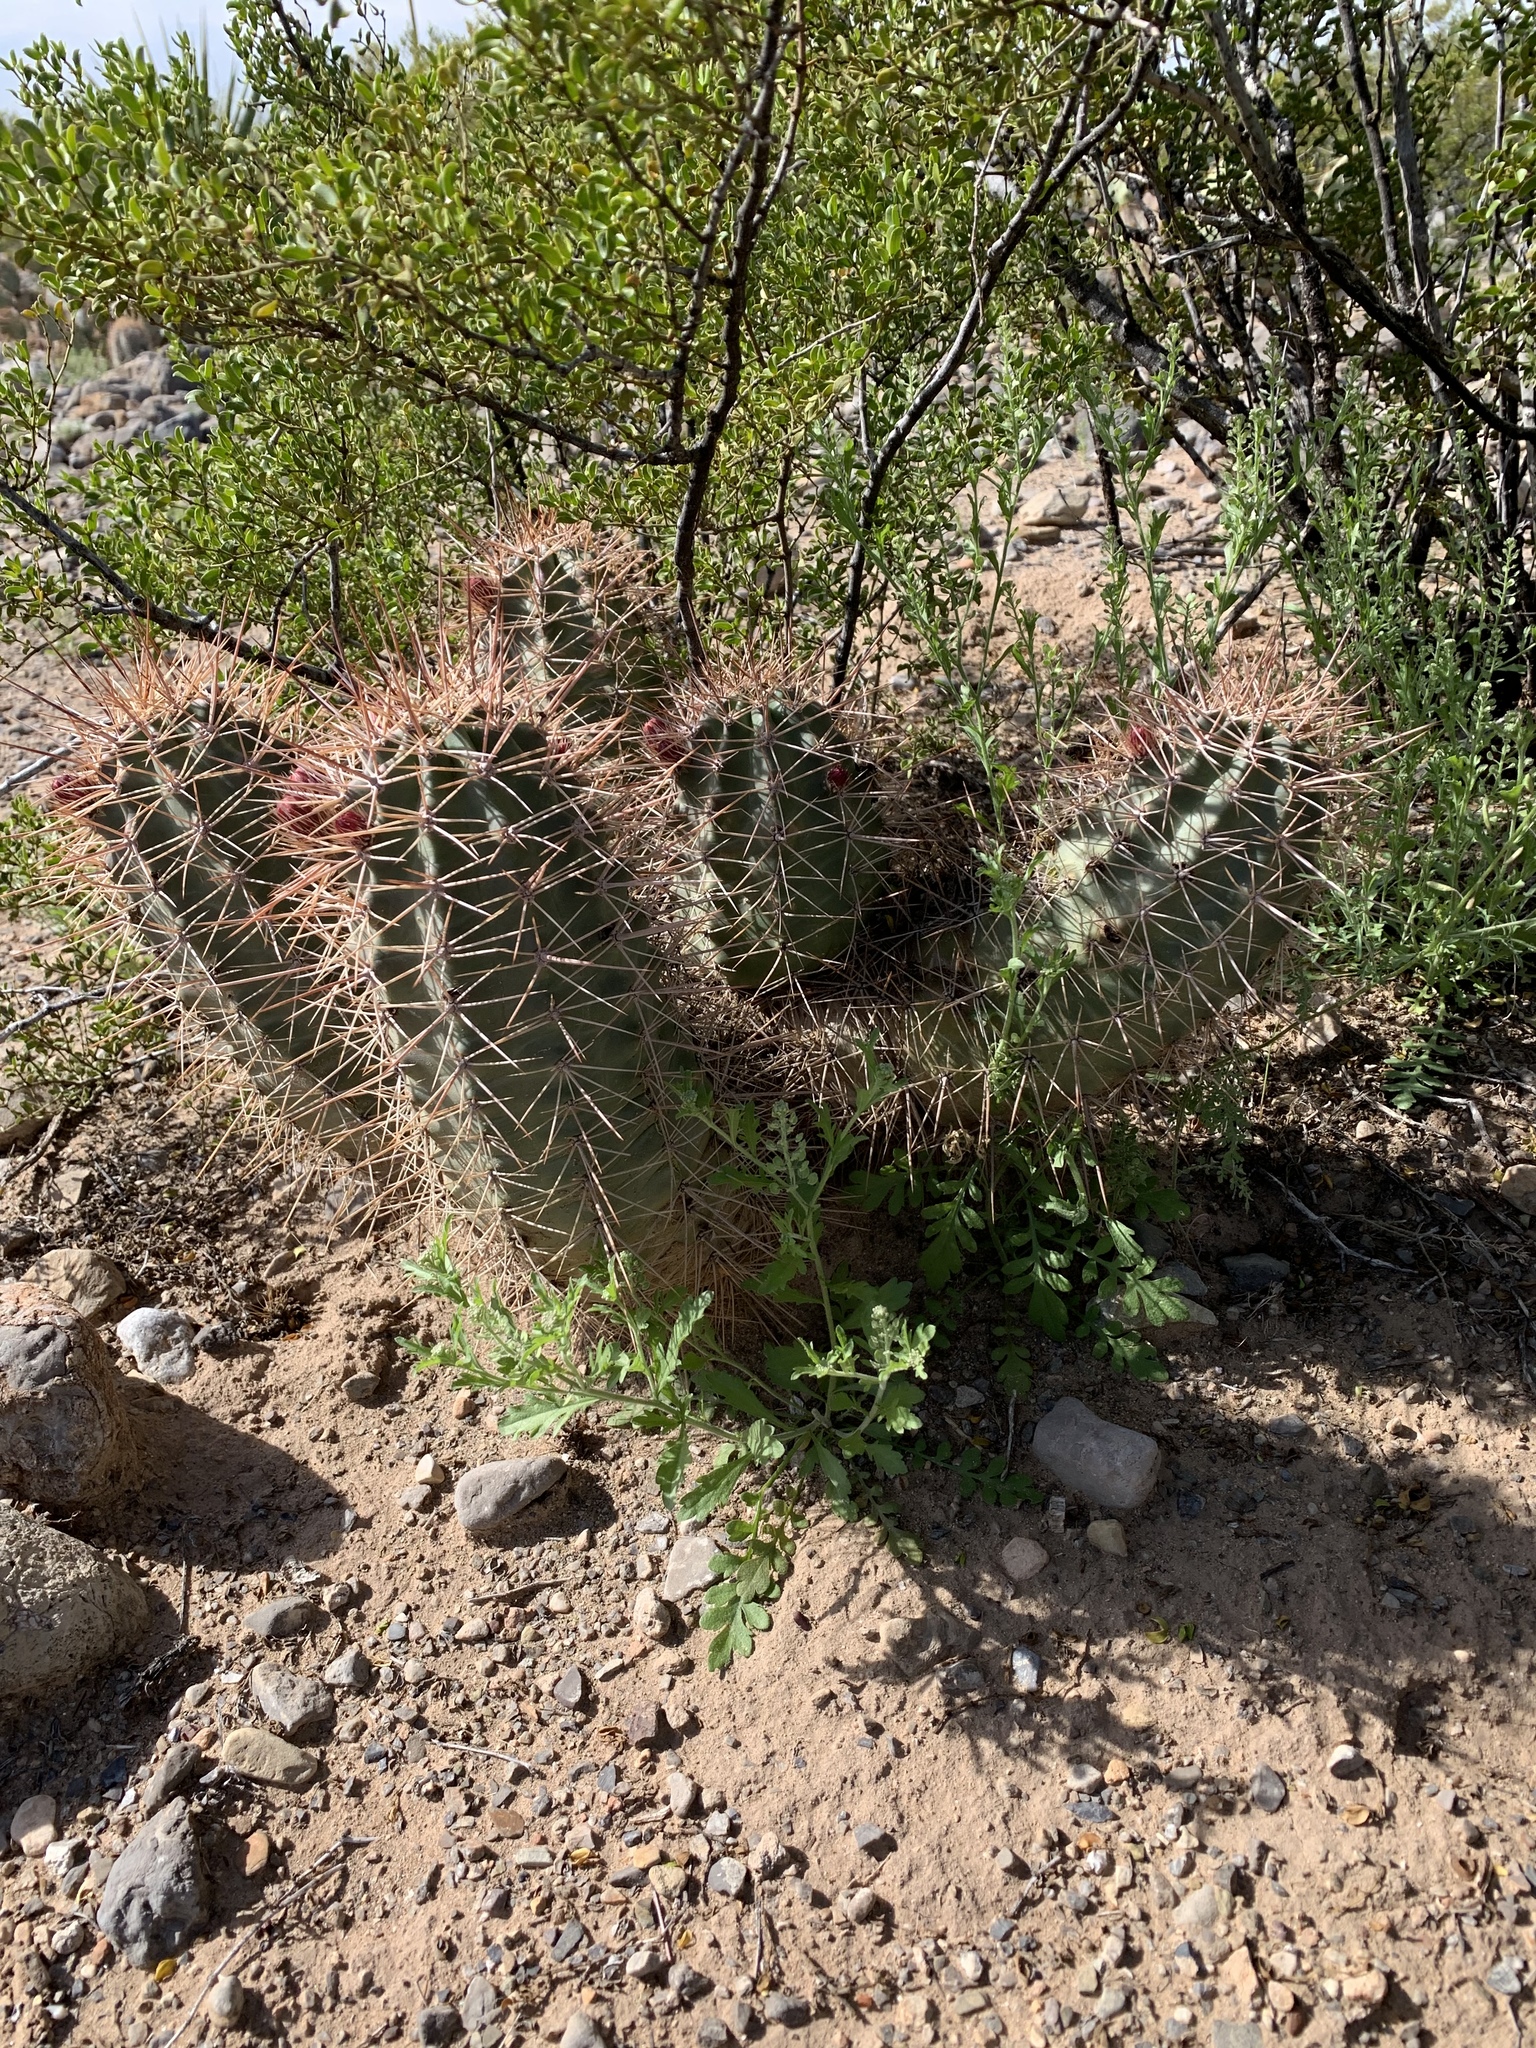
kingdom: Plantae
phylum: Tracheophyta
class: Magnoliopsida
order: Caryophyllales
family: Cactaceae
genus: Echinocereus
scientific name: Echinocereus coccineus
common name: Scarlet hedgehog cactus
